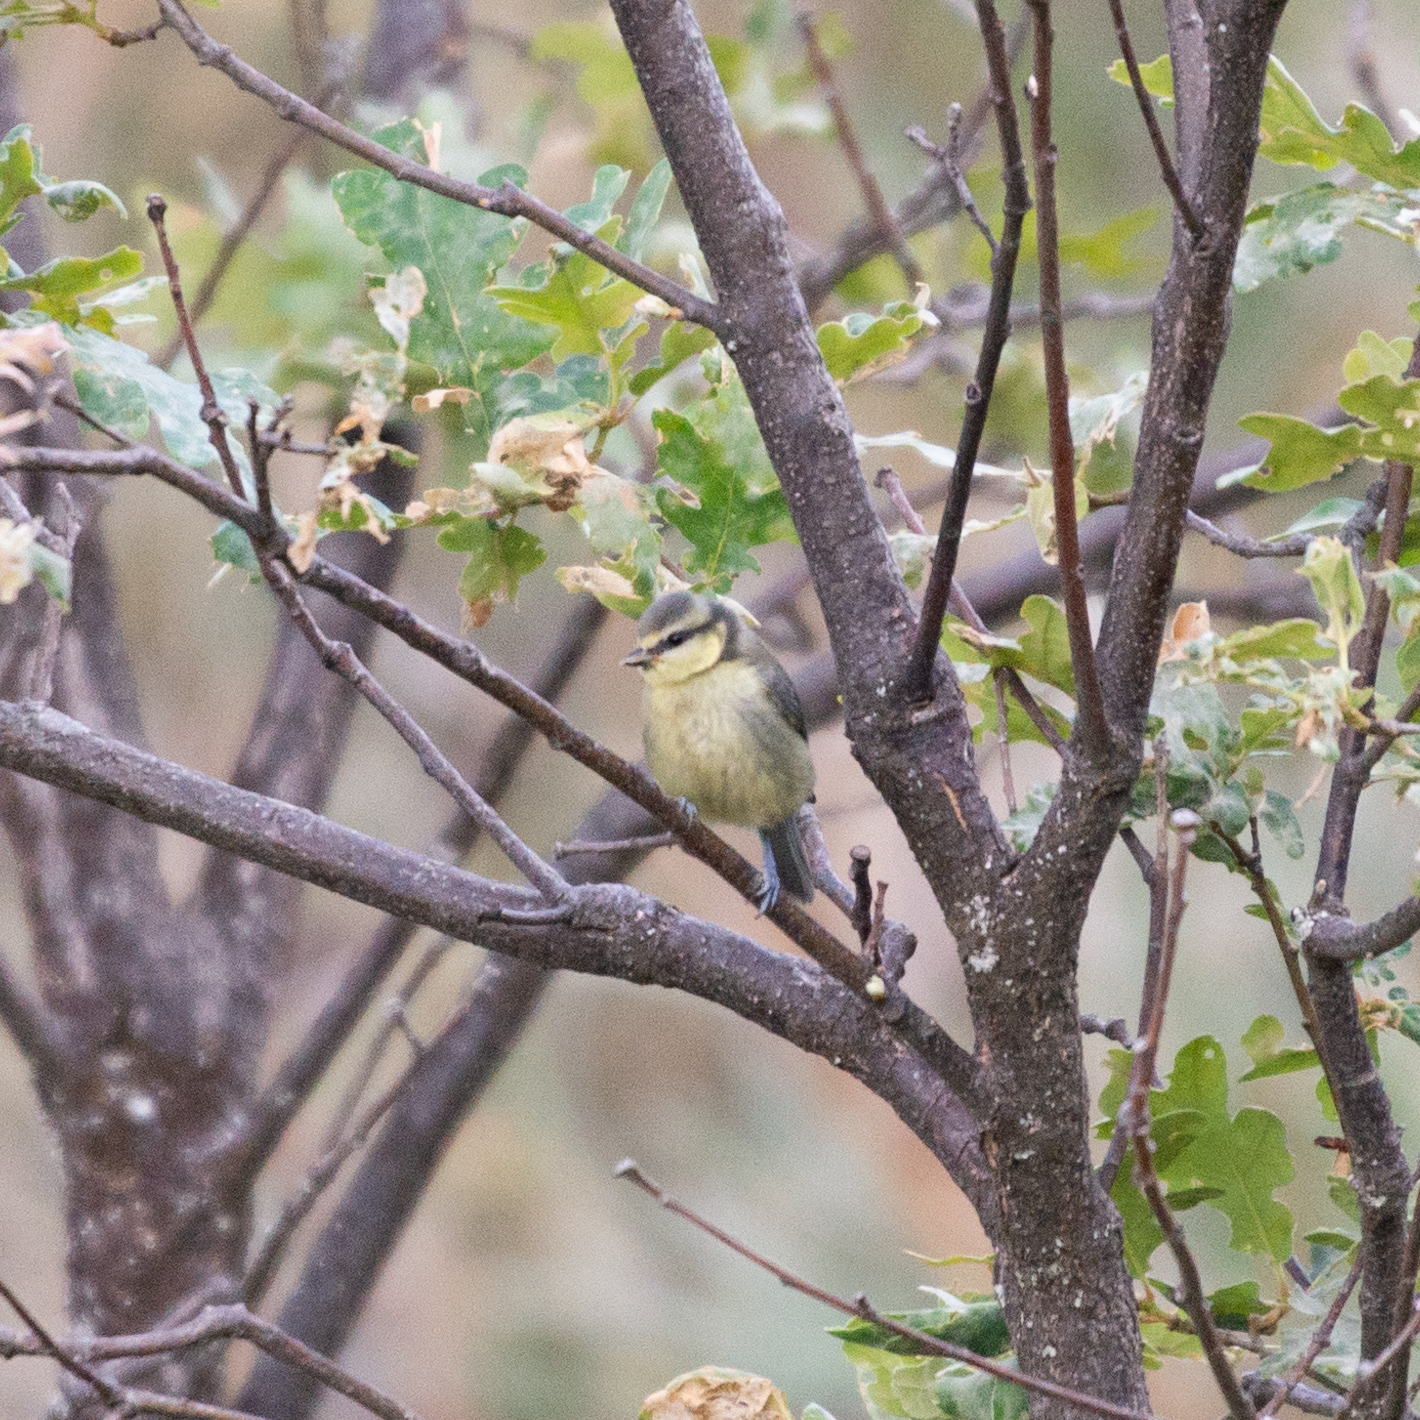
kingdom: Animalia
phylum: Chordata
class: Aves
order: Passeriformes
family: Paridae
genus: Cyanistes
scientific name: Cyanistes caeruleus
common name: Eurasian blue tit
